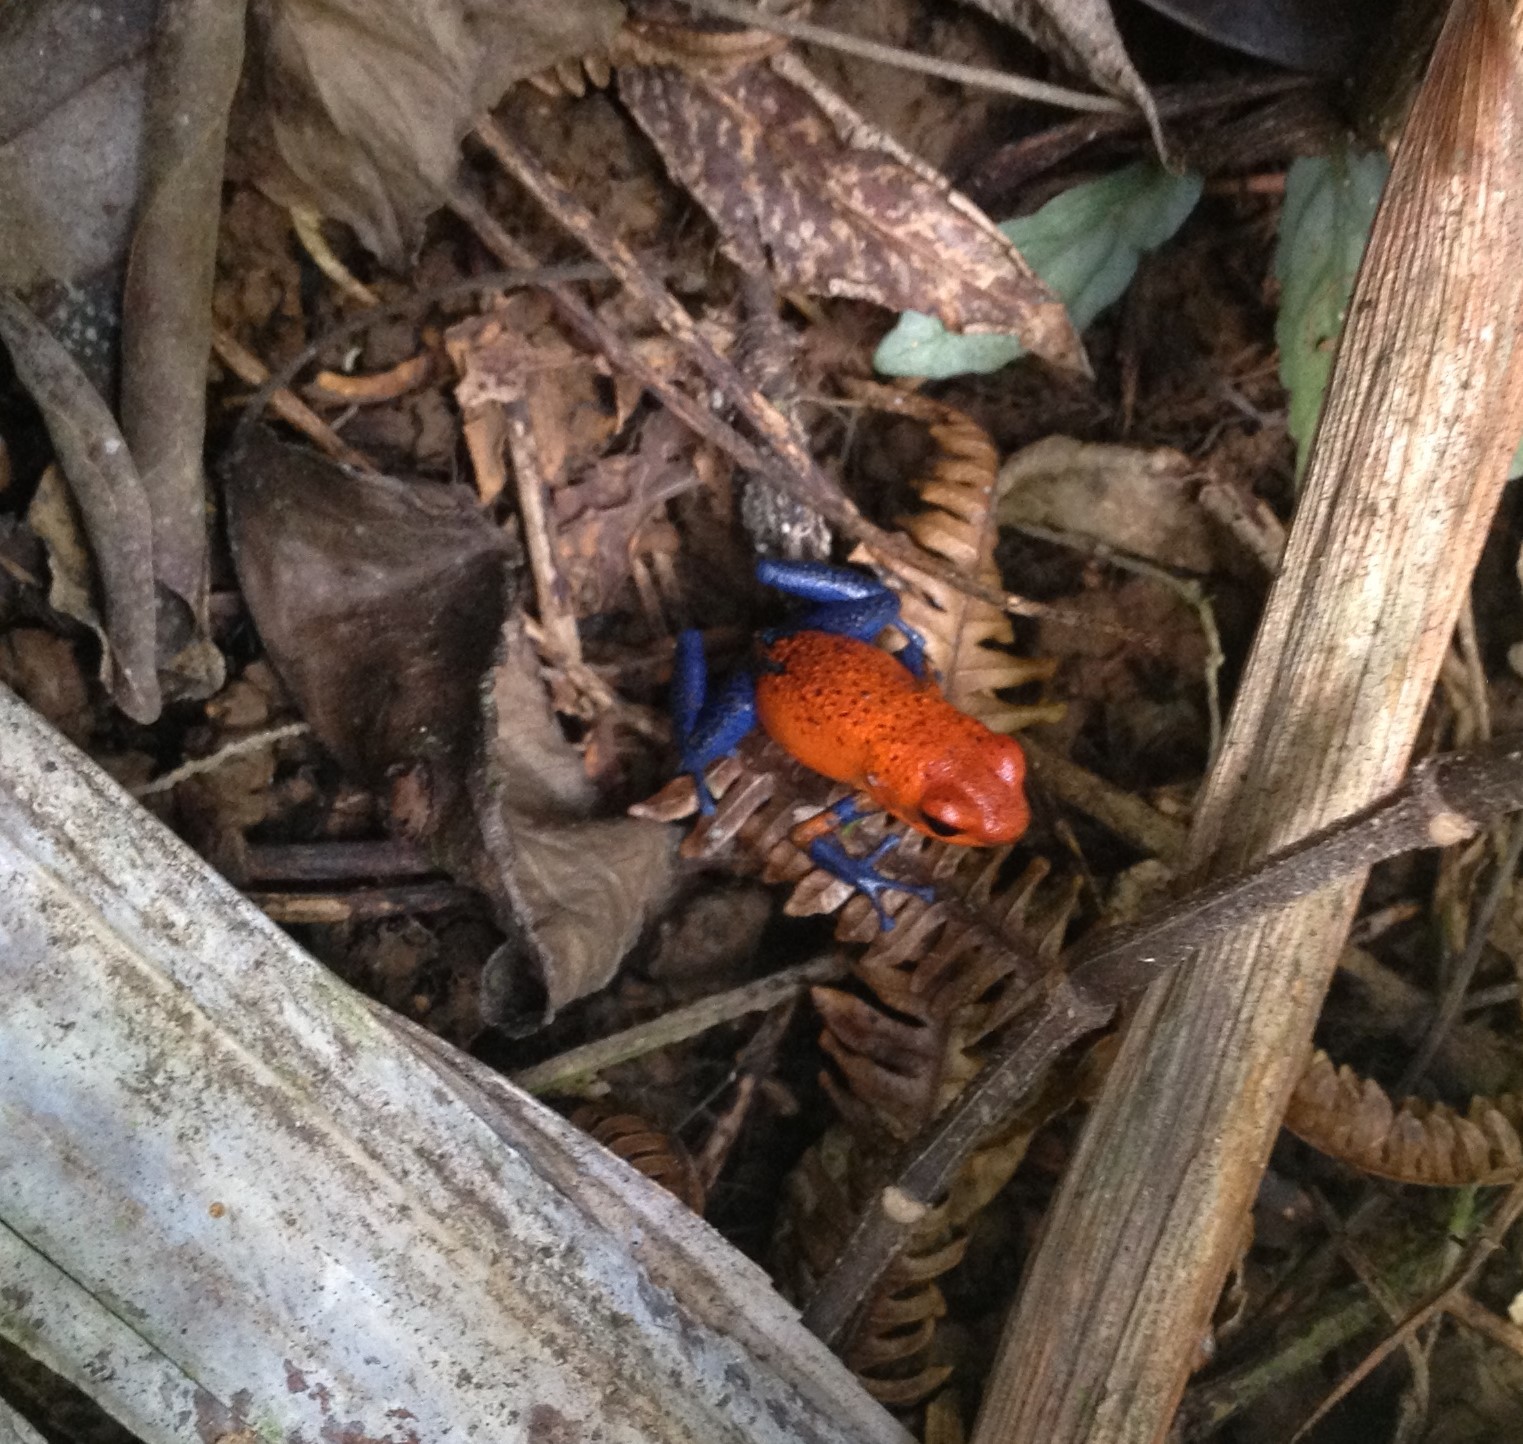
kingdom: Animalia
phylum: Chordata
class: Amphibia
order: Anura
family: Dendrobatidae
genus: Oophaga
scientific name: Oophaga pumilio
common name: Flaming poison frog
